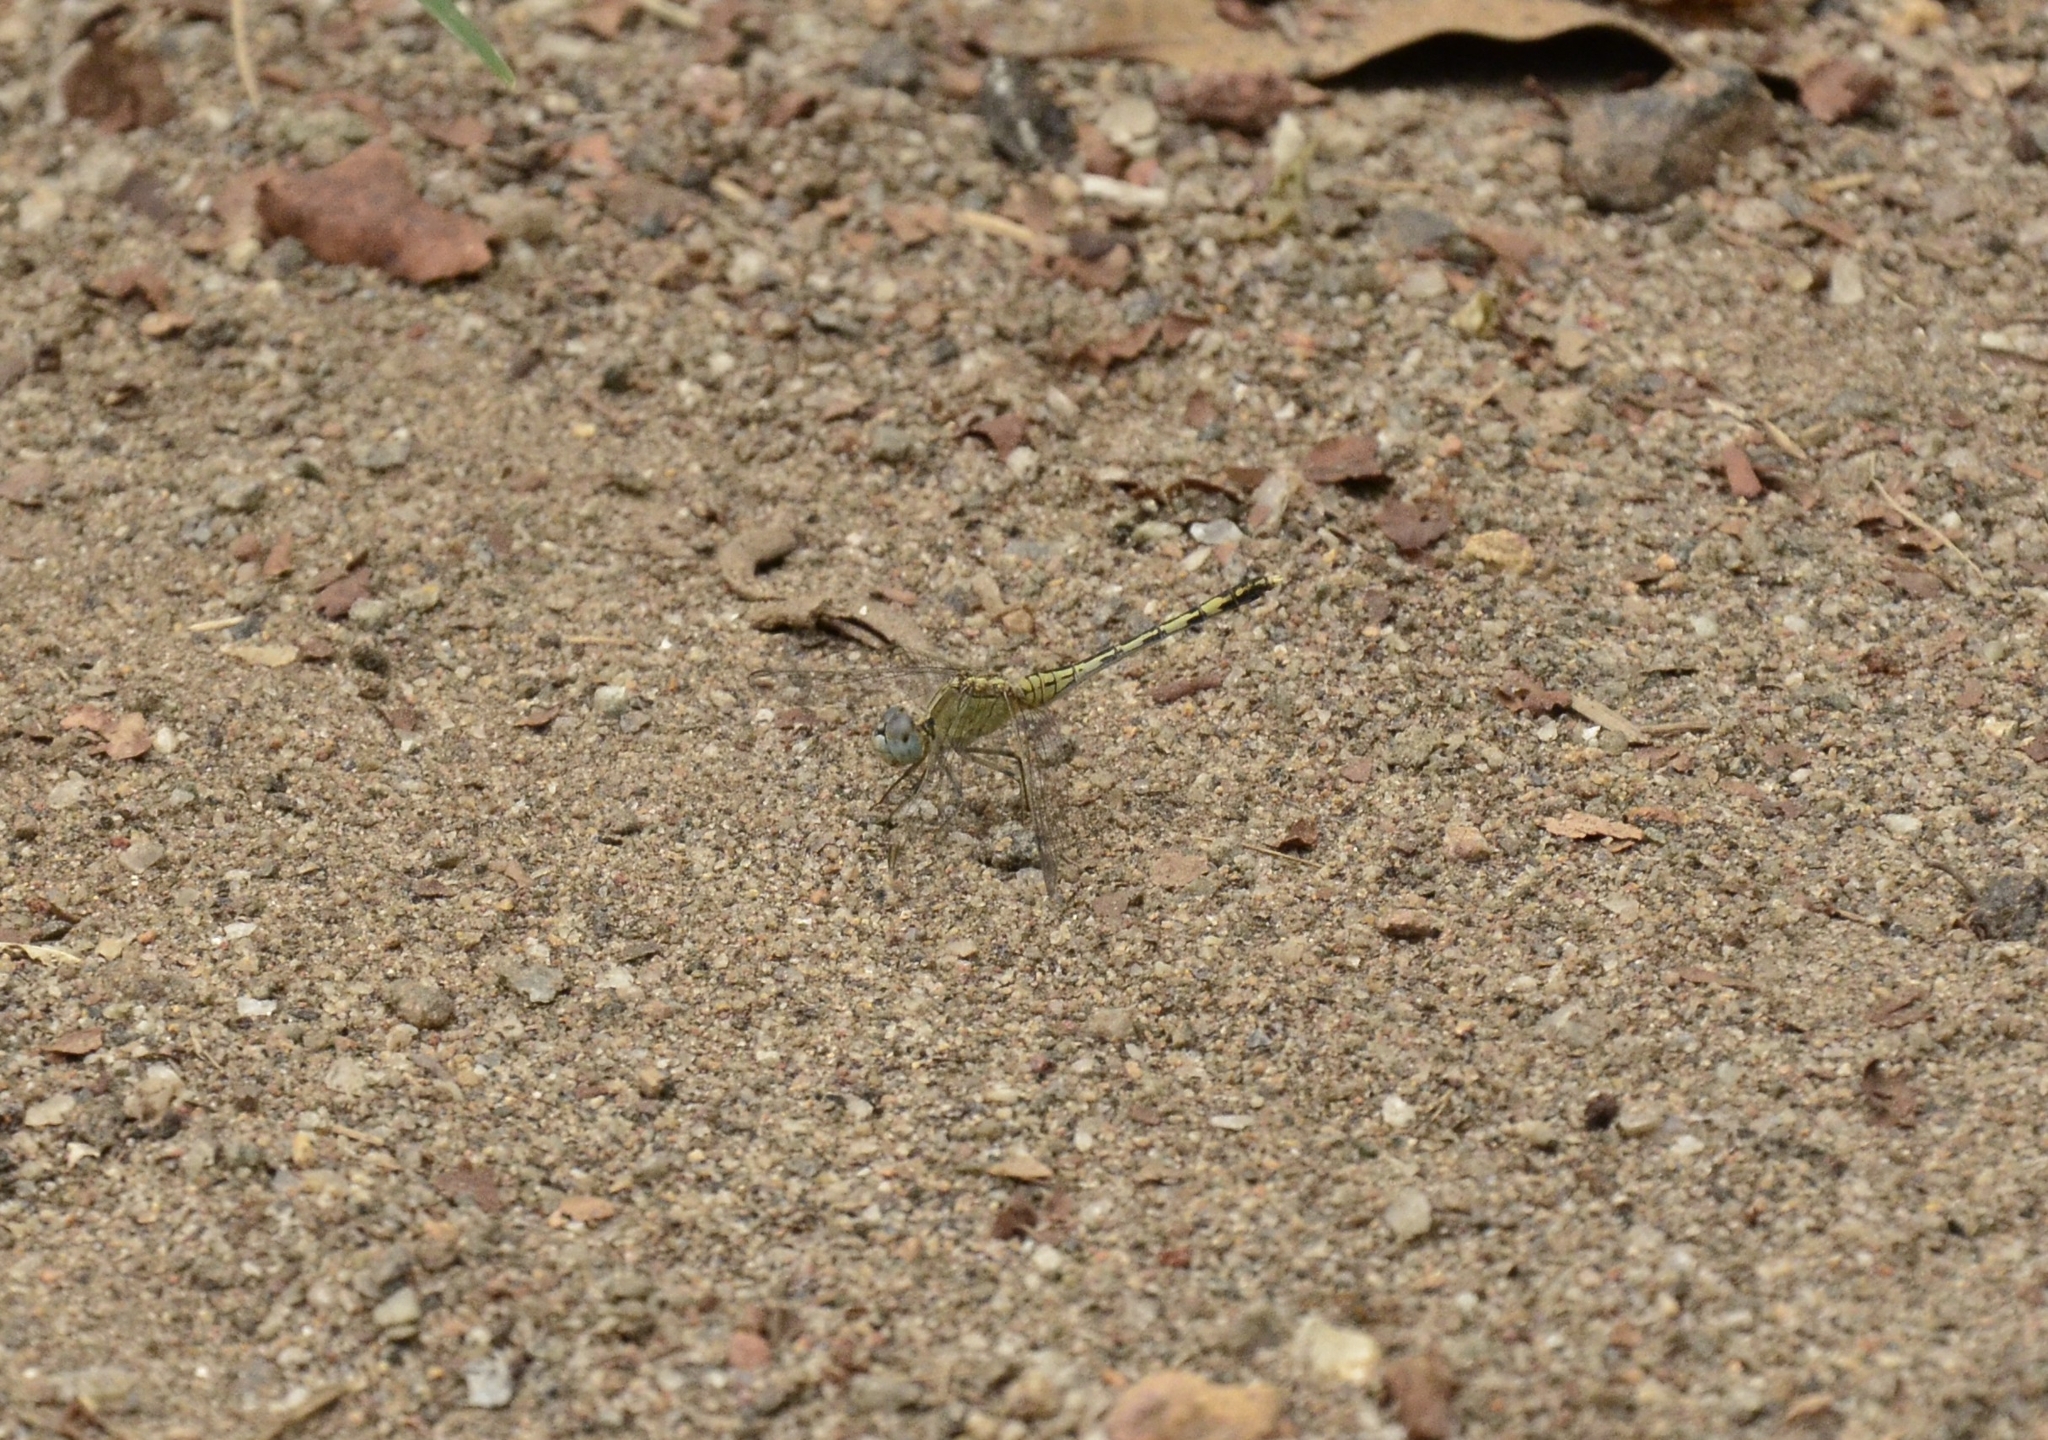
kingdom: Animalia
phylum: Arthropoda
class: Insecta
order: Odonata
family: Libellulidae
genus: Diplacodes
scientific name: Diplacodes trivialis
